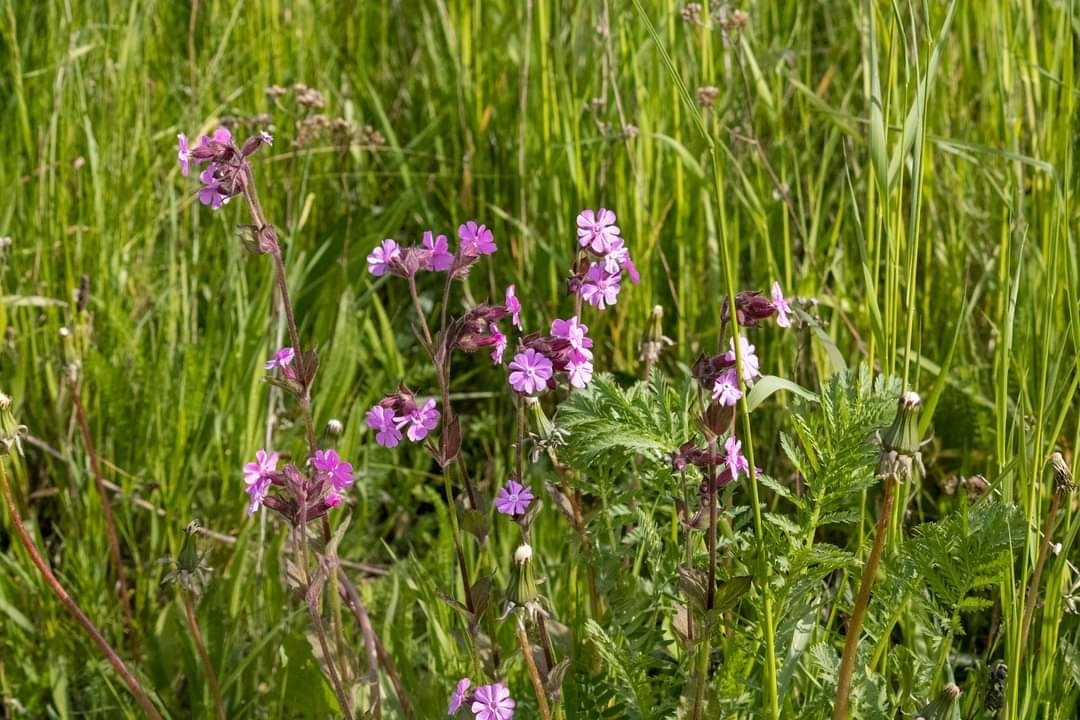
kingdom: Plantae
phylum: Tracheophyta
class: Magnoliopsida
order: Caryophyllales
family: Caryophyllaceae
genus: Silene
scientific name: Silene dioica
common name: Red campion
